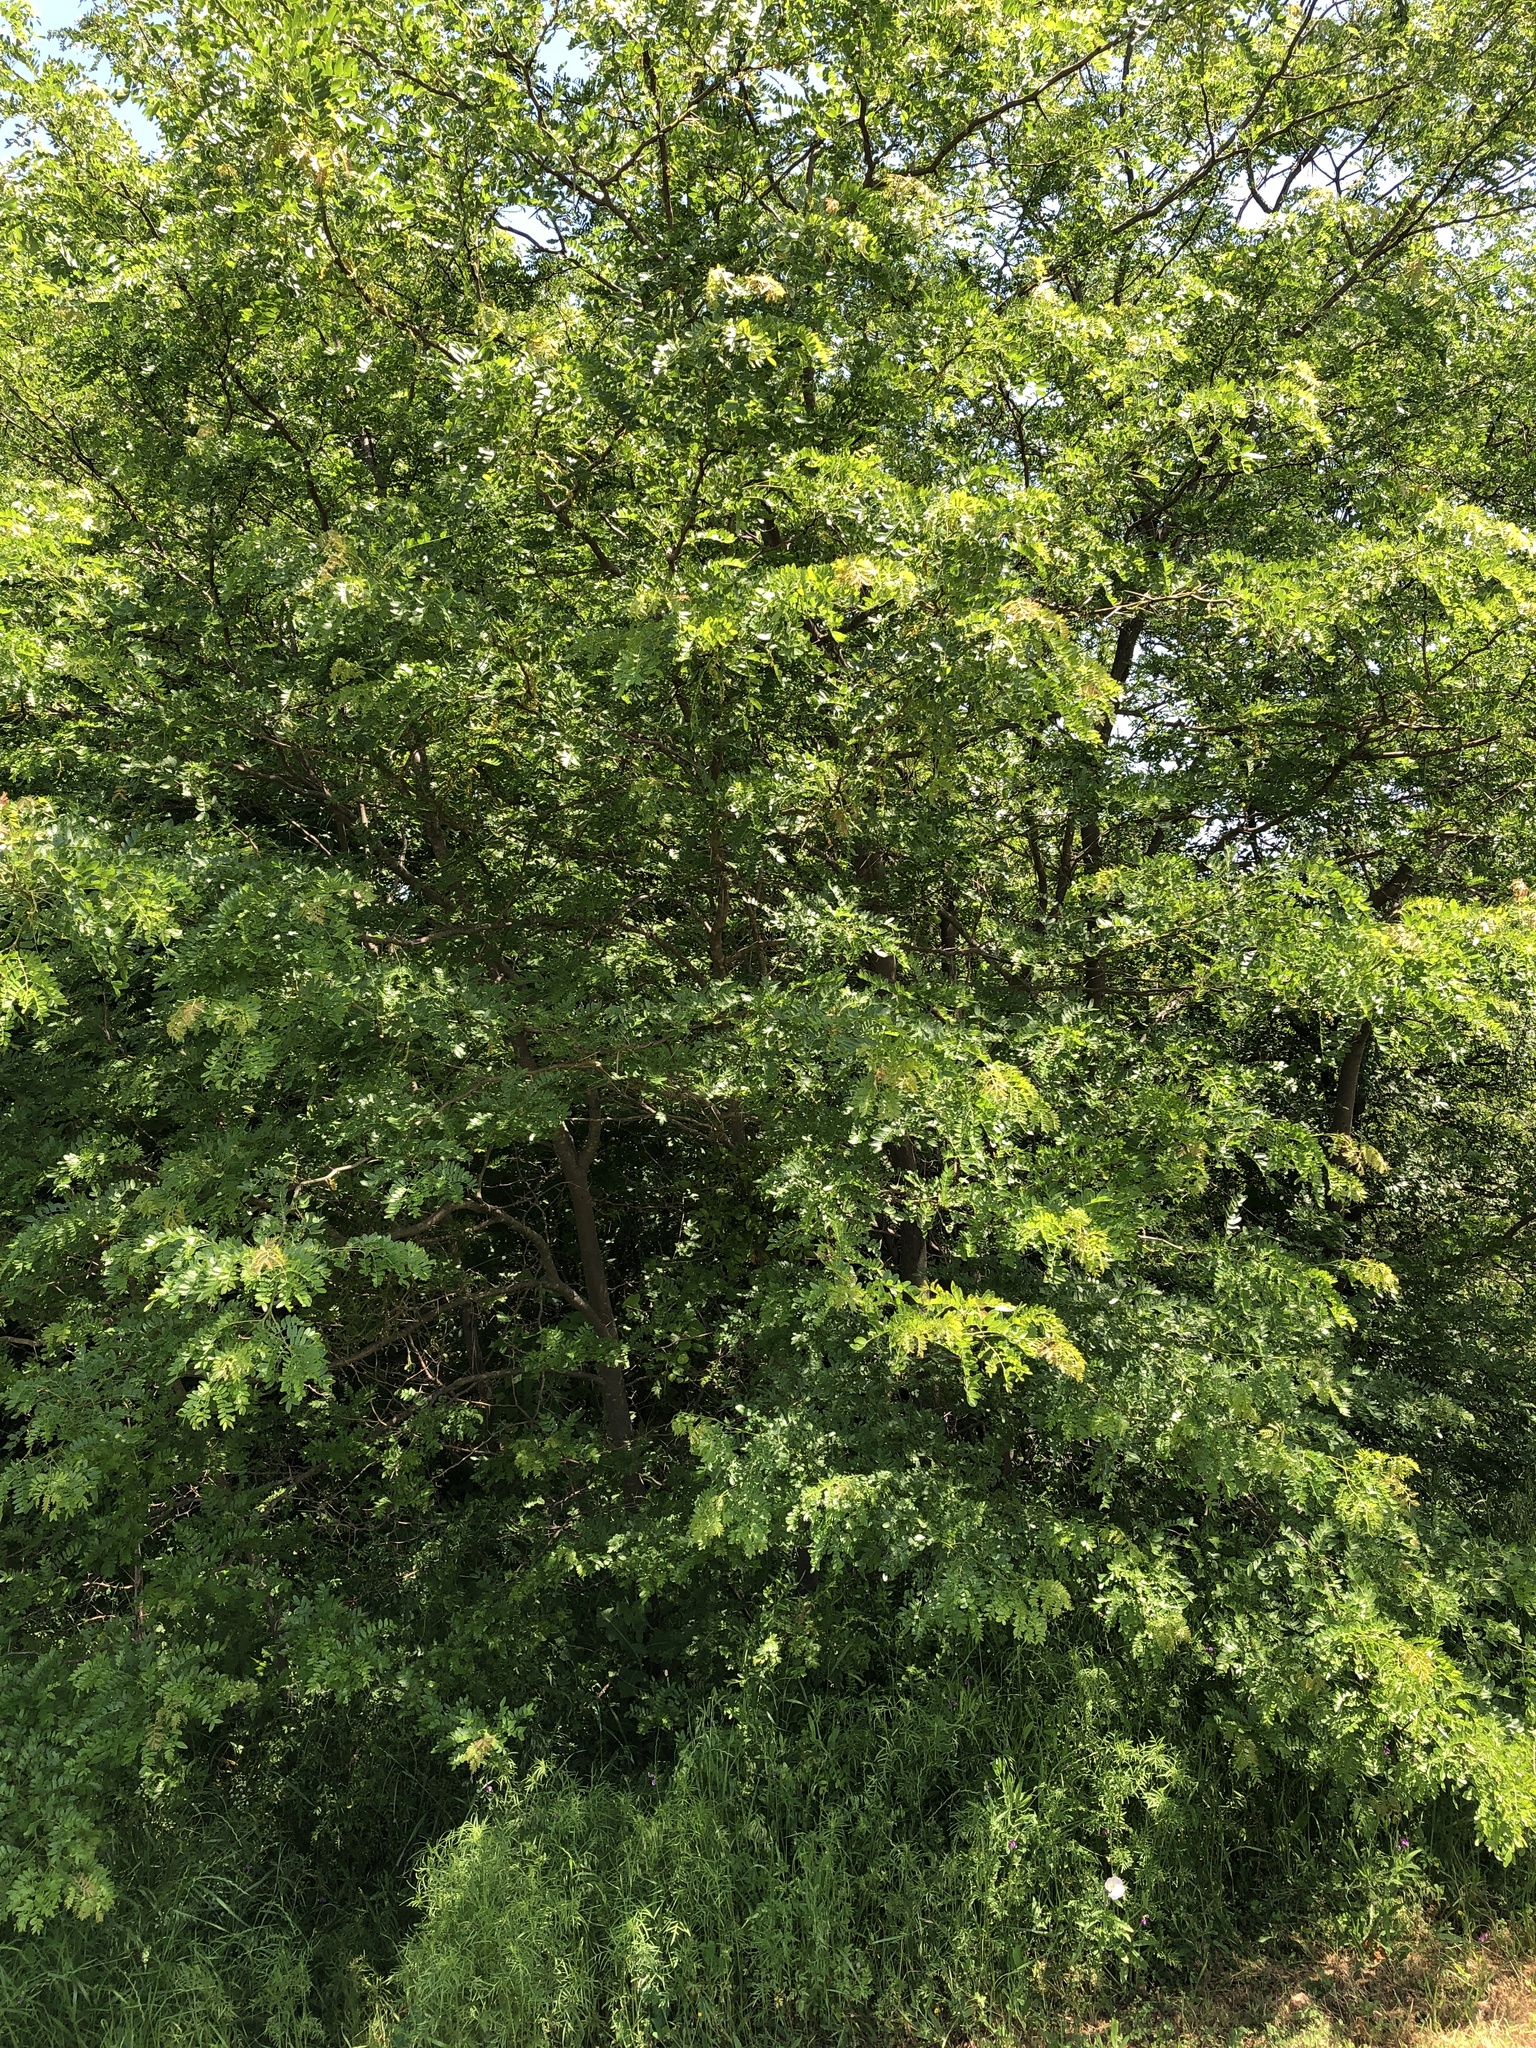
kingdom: Plantae
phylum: Tracheophyta
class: Magnoliopsida
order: Fabales
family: Fabaceae
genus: Gleditsia
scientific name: Gleditsia triacanthos
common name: Common honeylocust
